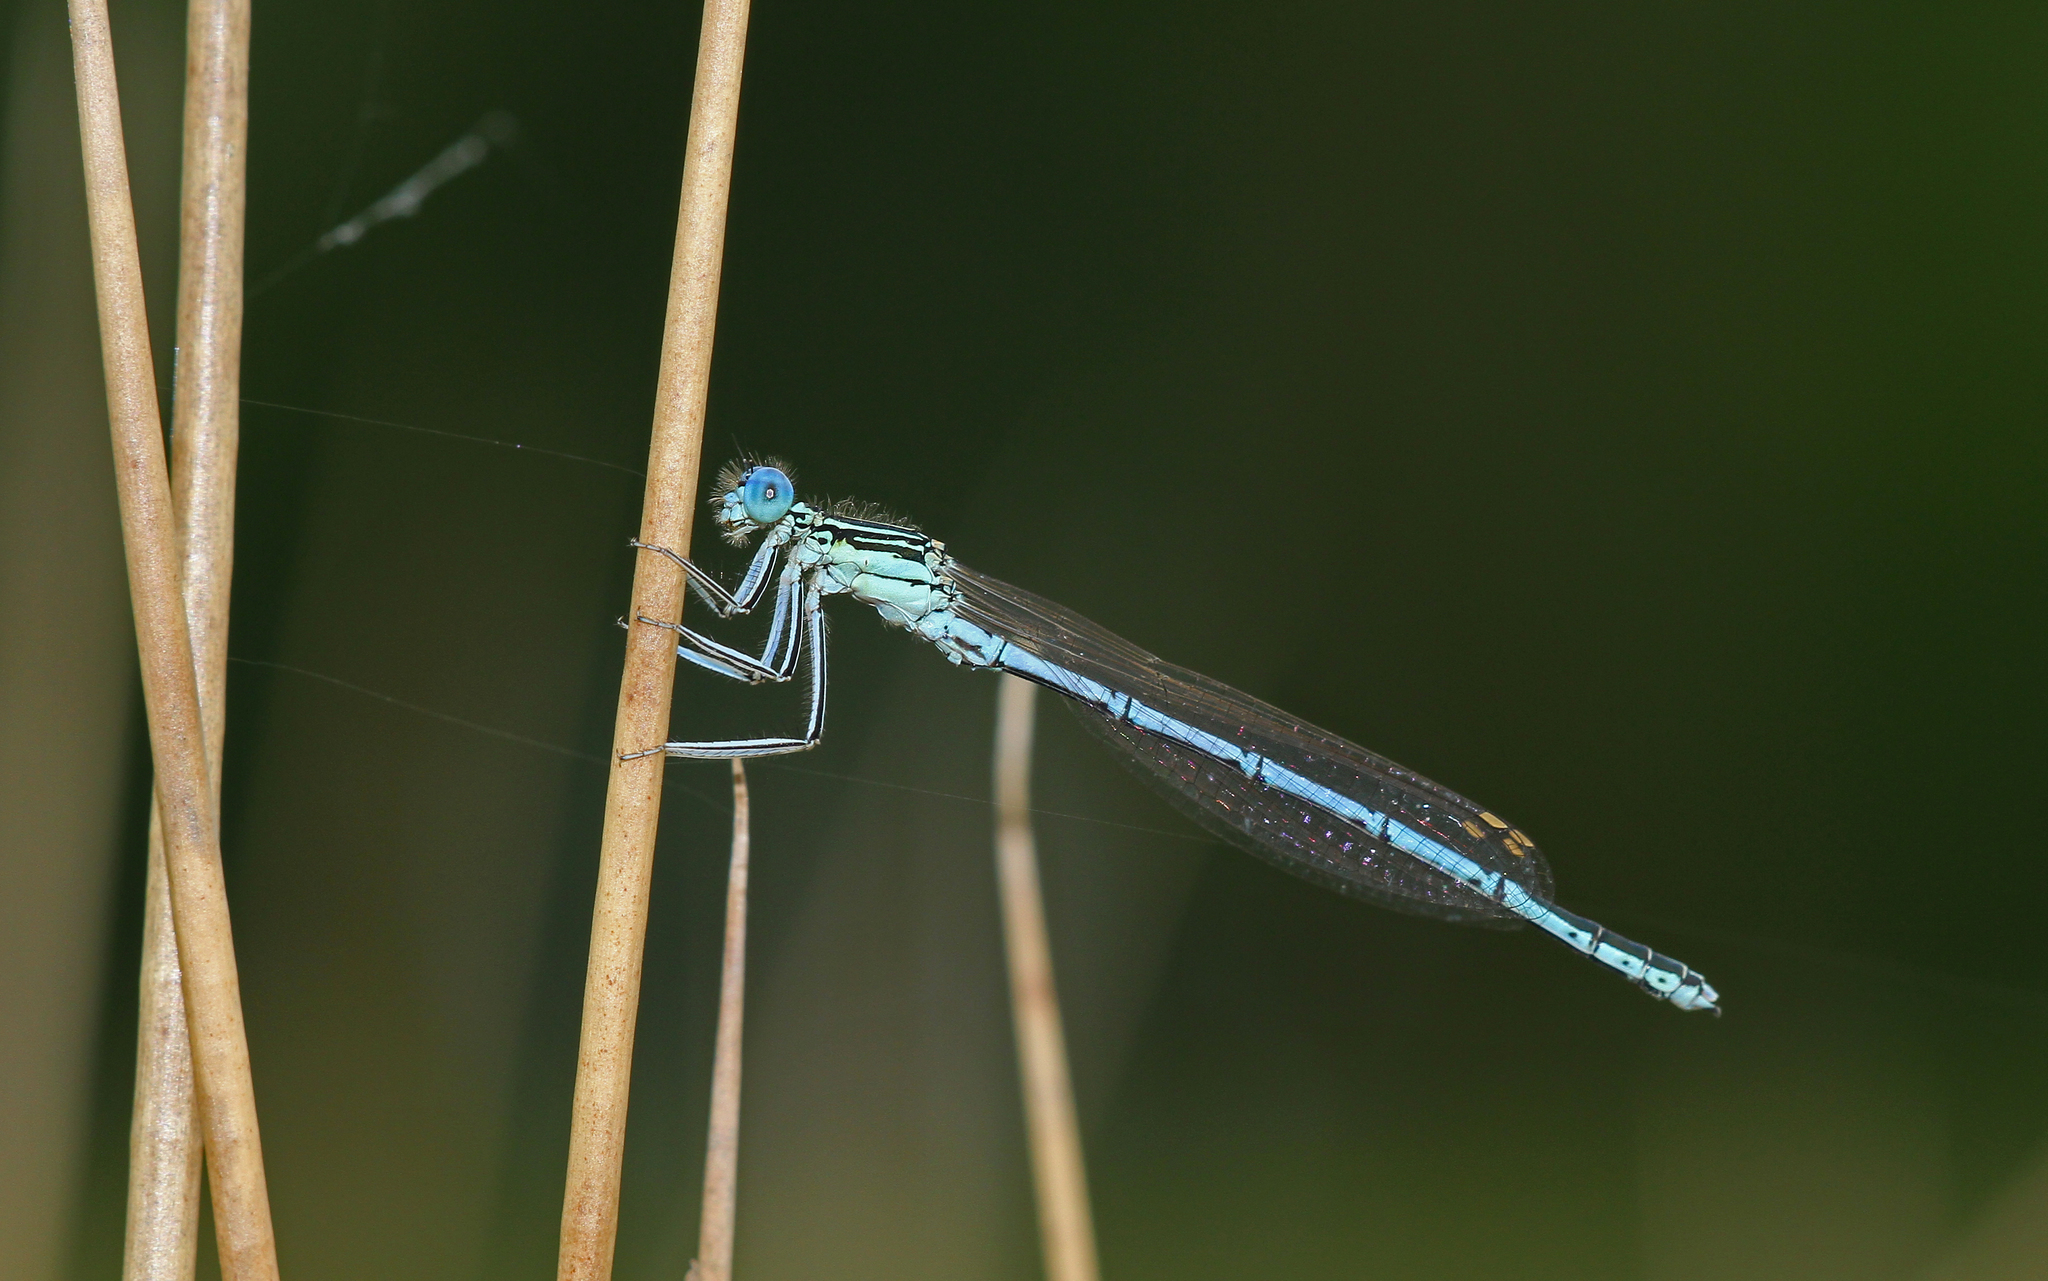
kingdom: Animalia
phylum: Arthropoda
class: Insecta
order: Odonata
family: Platycnemididae
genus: Platycnemis
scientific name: Platycnemis pennipes
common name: White-legged damselfly
